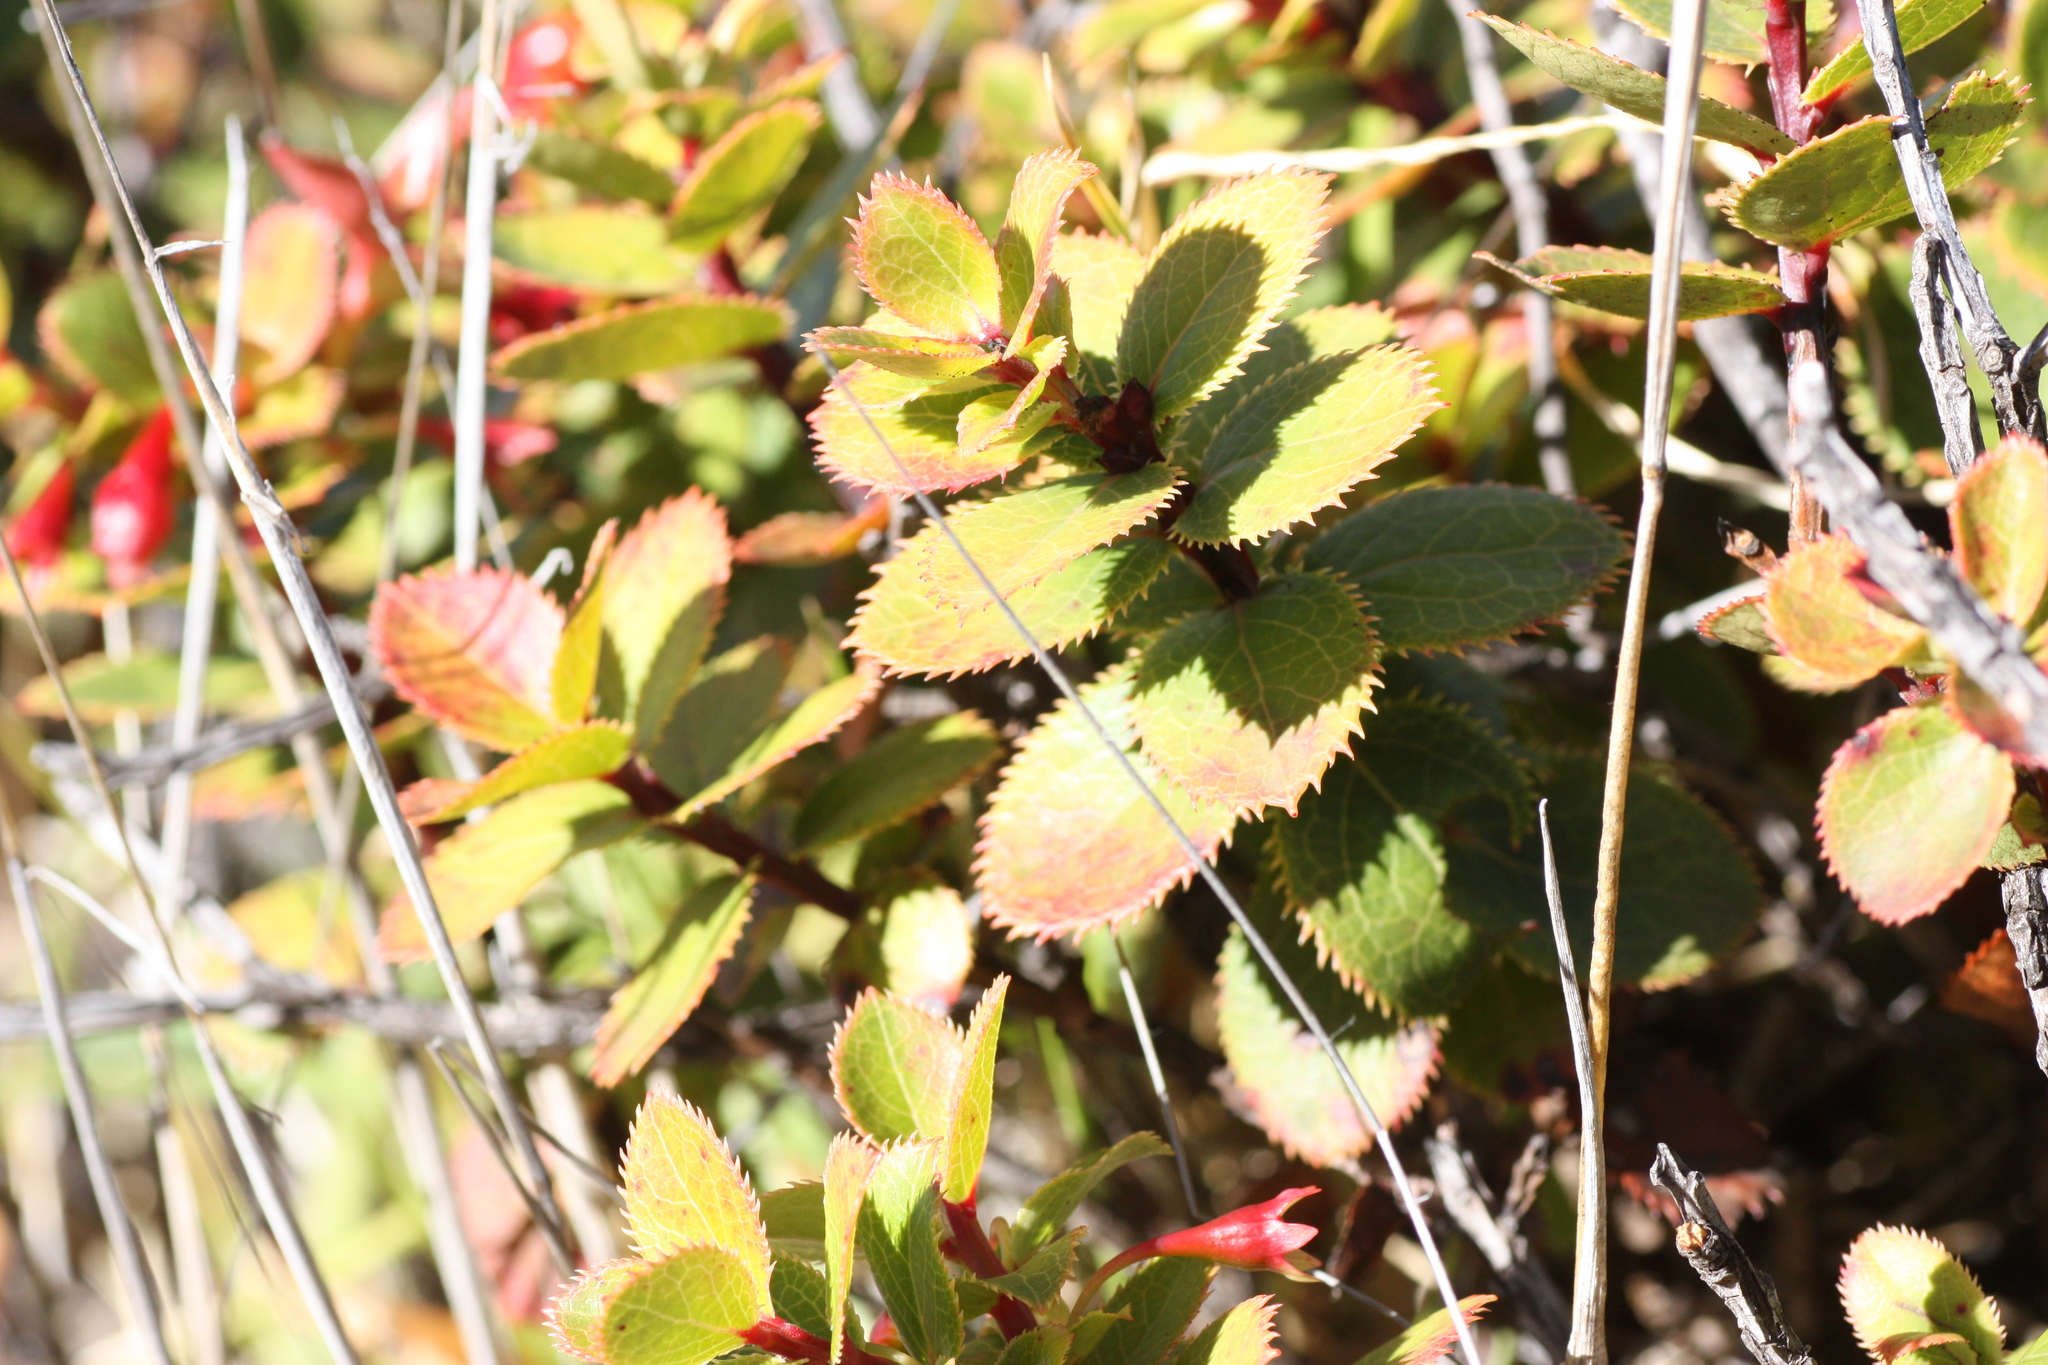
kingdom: Plantae
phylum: Tracheophyta
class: Magnoliopsida
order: Ericales
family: Ericaceae
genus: Vaccinium
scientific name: Vaccinium dentatum
